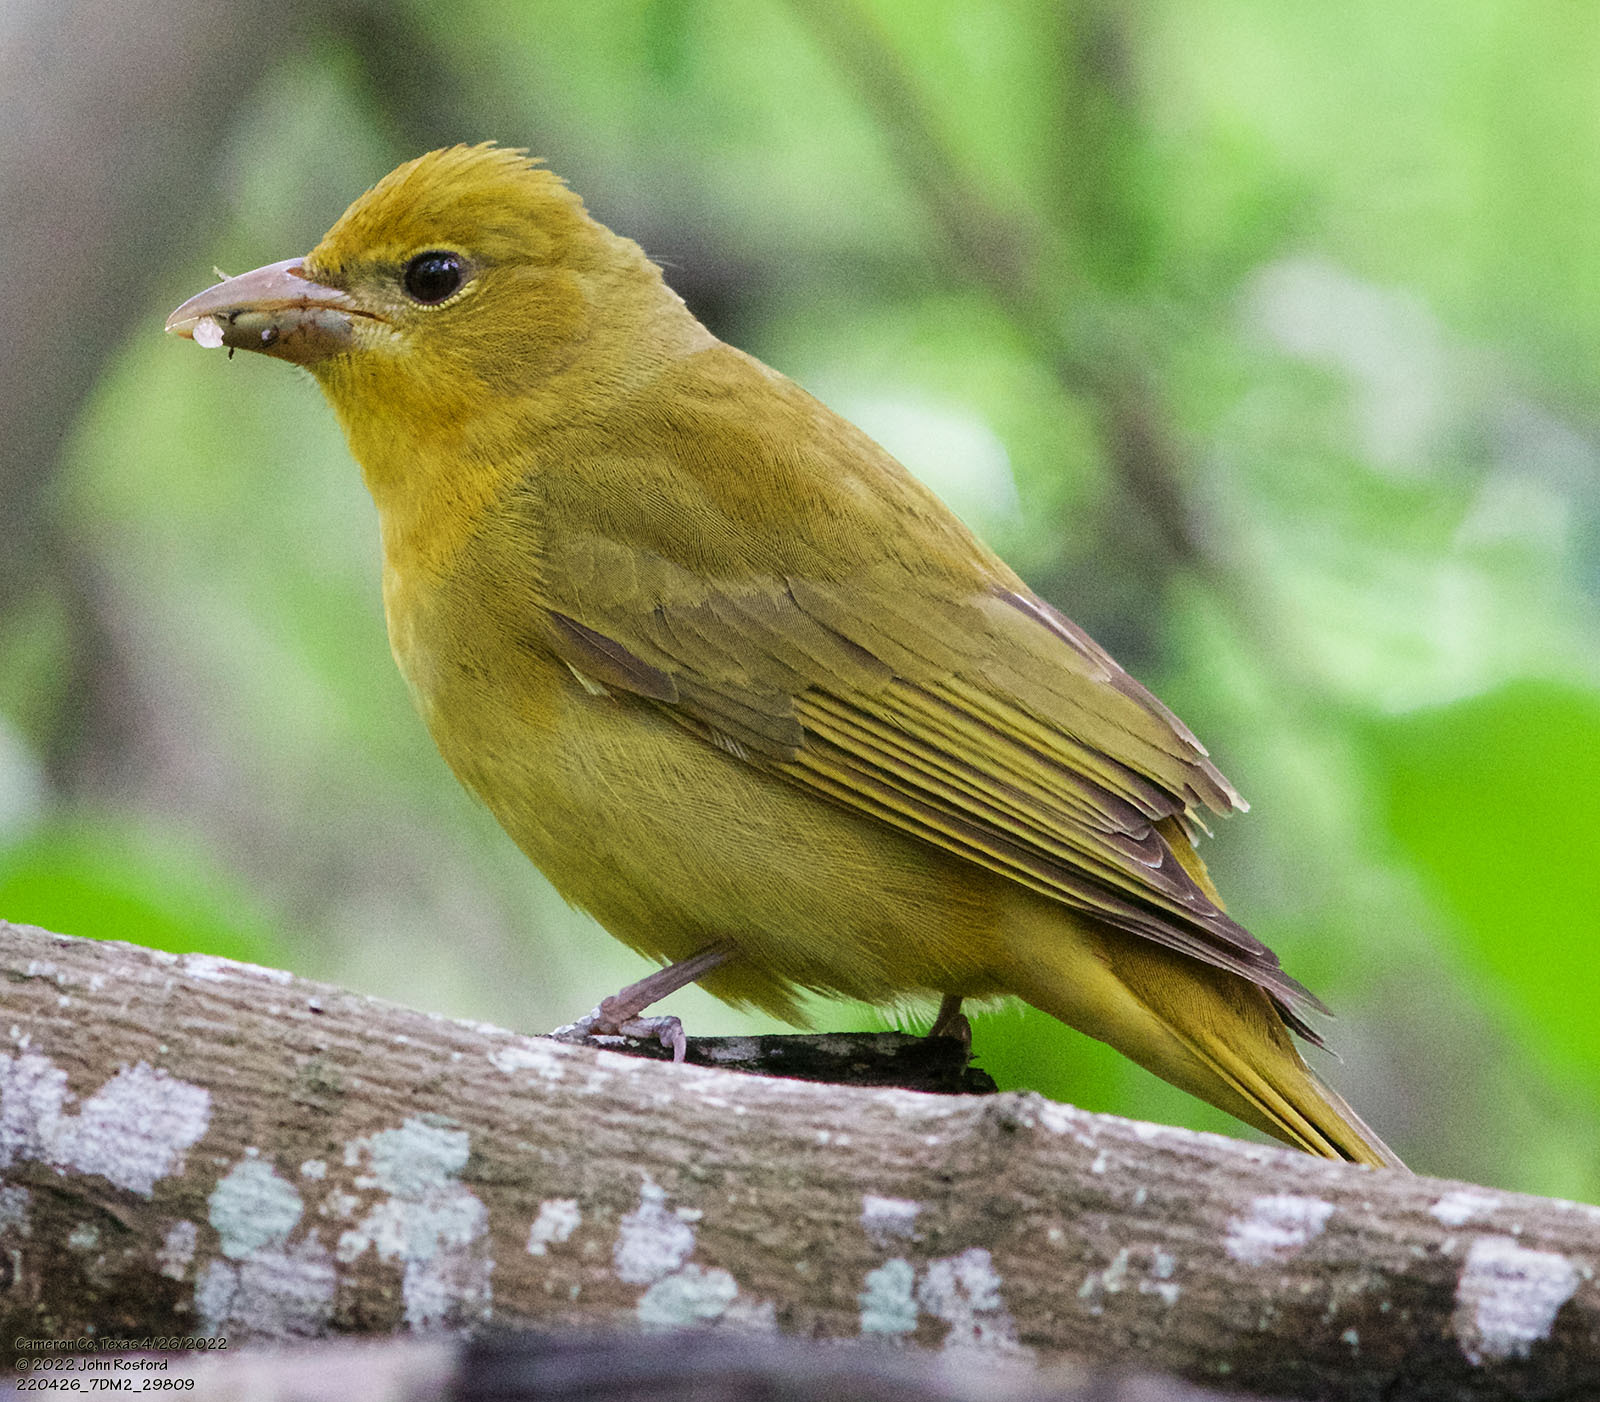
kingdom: Animalia
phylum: Chordata
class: Aves
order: Passeriformes
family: Cardinalidae
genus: Piranga
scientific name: Piranga rubra
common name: Summer tanager
